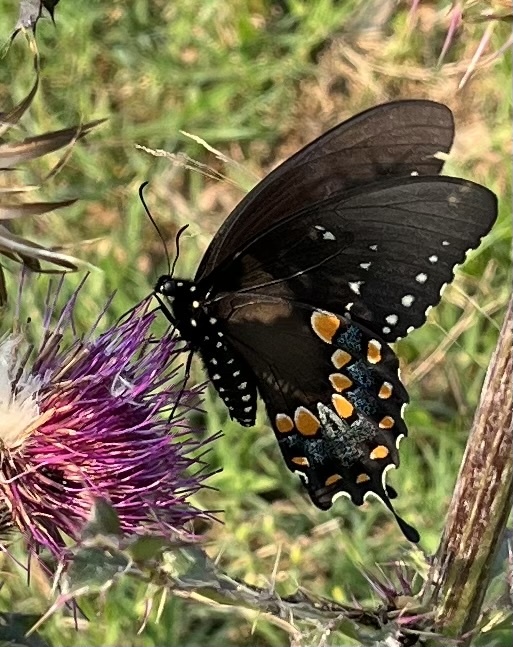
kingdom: Animalia
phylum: Arthropoda
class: Insecta
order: Lepidoptera
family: Papilionidae
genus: Papilio
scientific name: Papilio troilus
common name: Spicebush swallowtail
